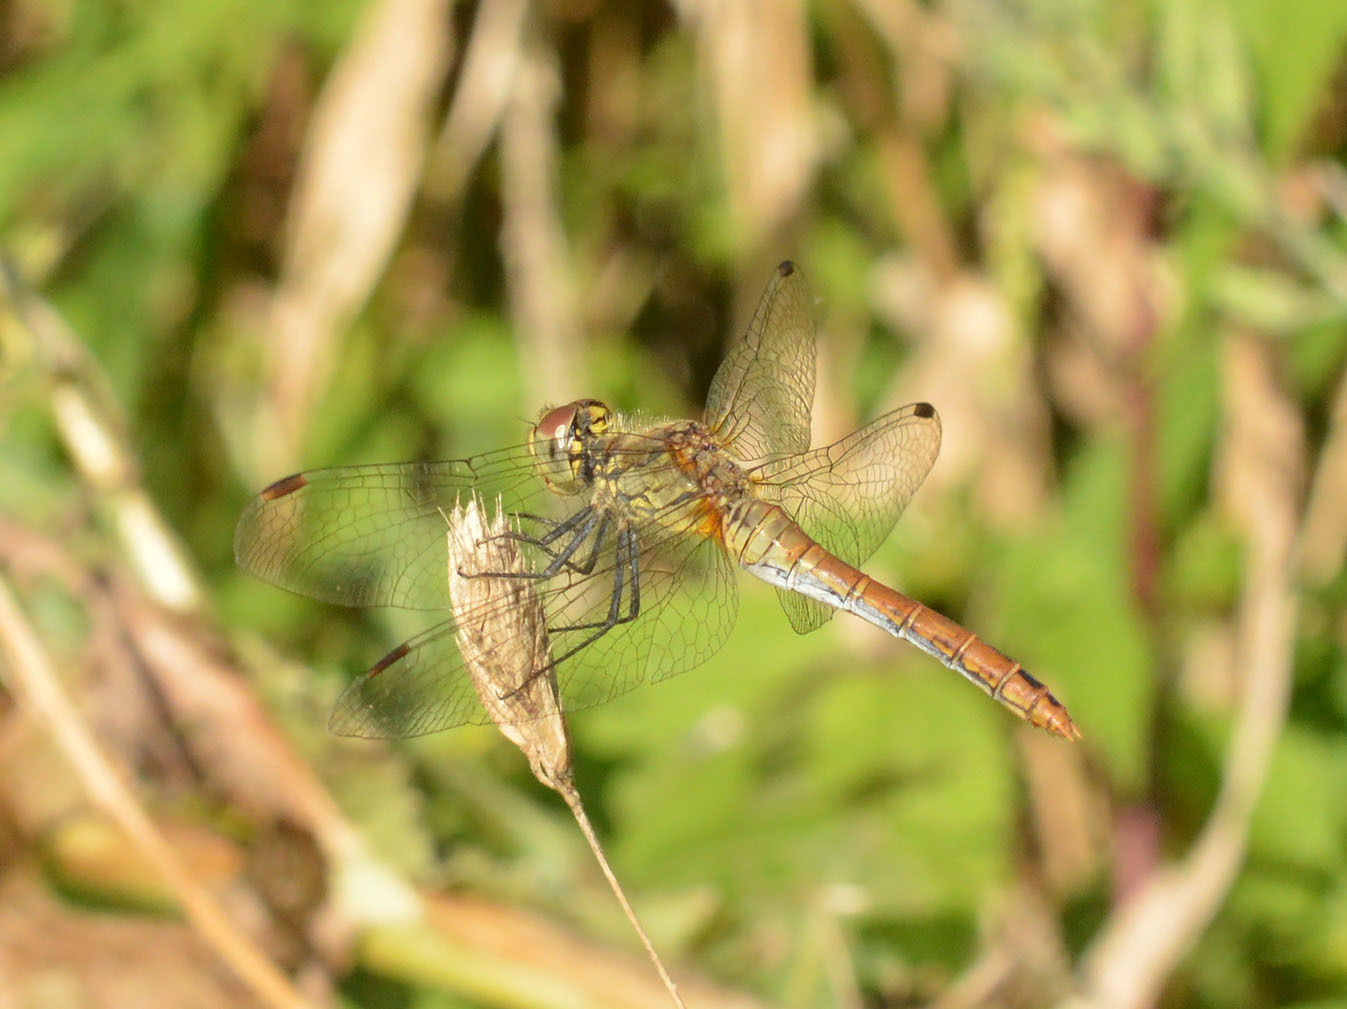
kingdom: Animalia
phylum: Arthropoda
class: Insecta
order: Odonata
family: Libellulidae
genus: Sympetrum
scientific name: Sympetrum sanguineum
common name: Ruddy darter
